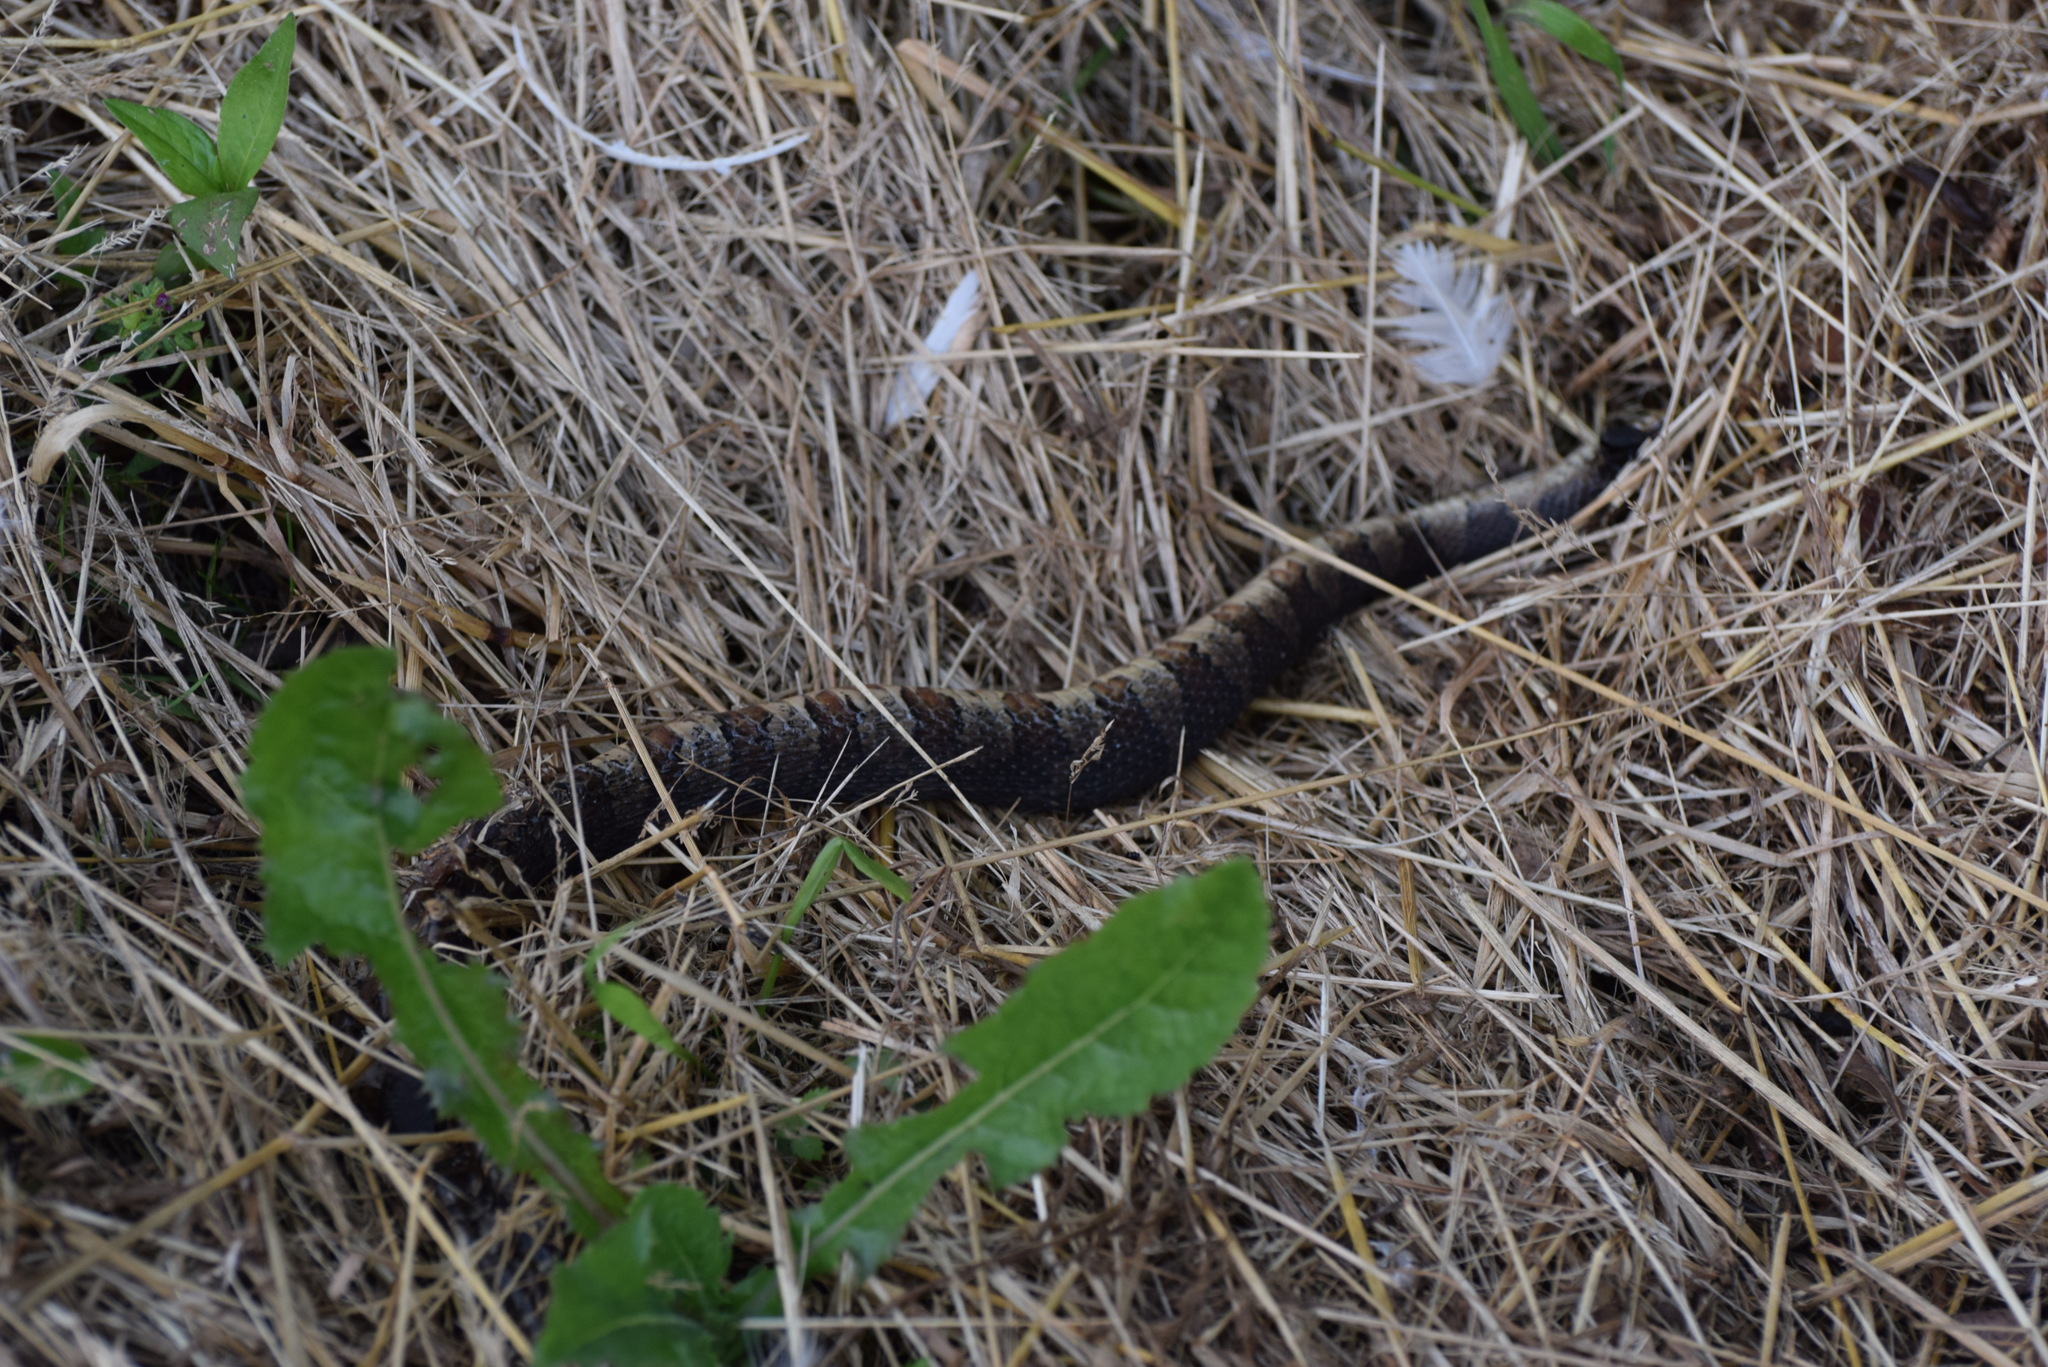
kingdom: Animalia
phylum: Chordata
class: Squamata
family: Colubridae
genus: Nerodia
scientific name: Nerodia sipedon
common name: Northern water snake
